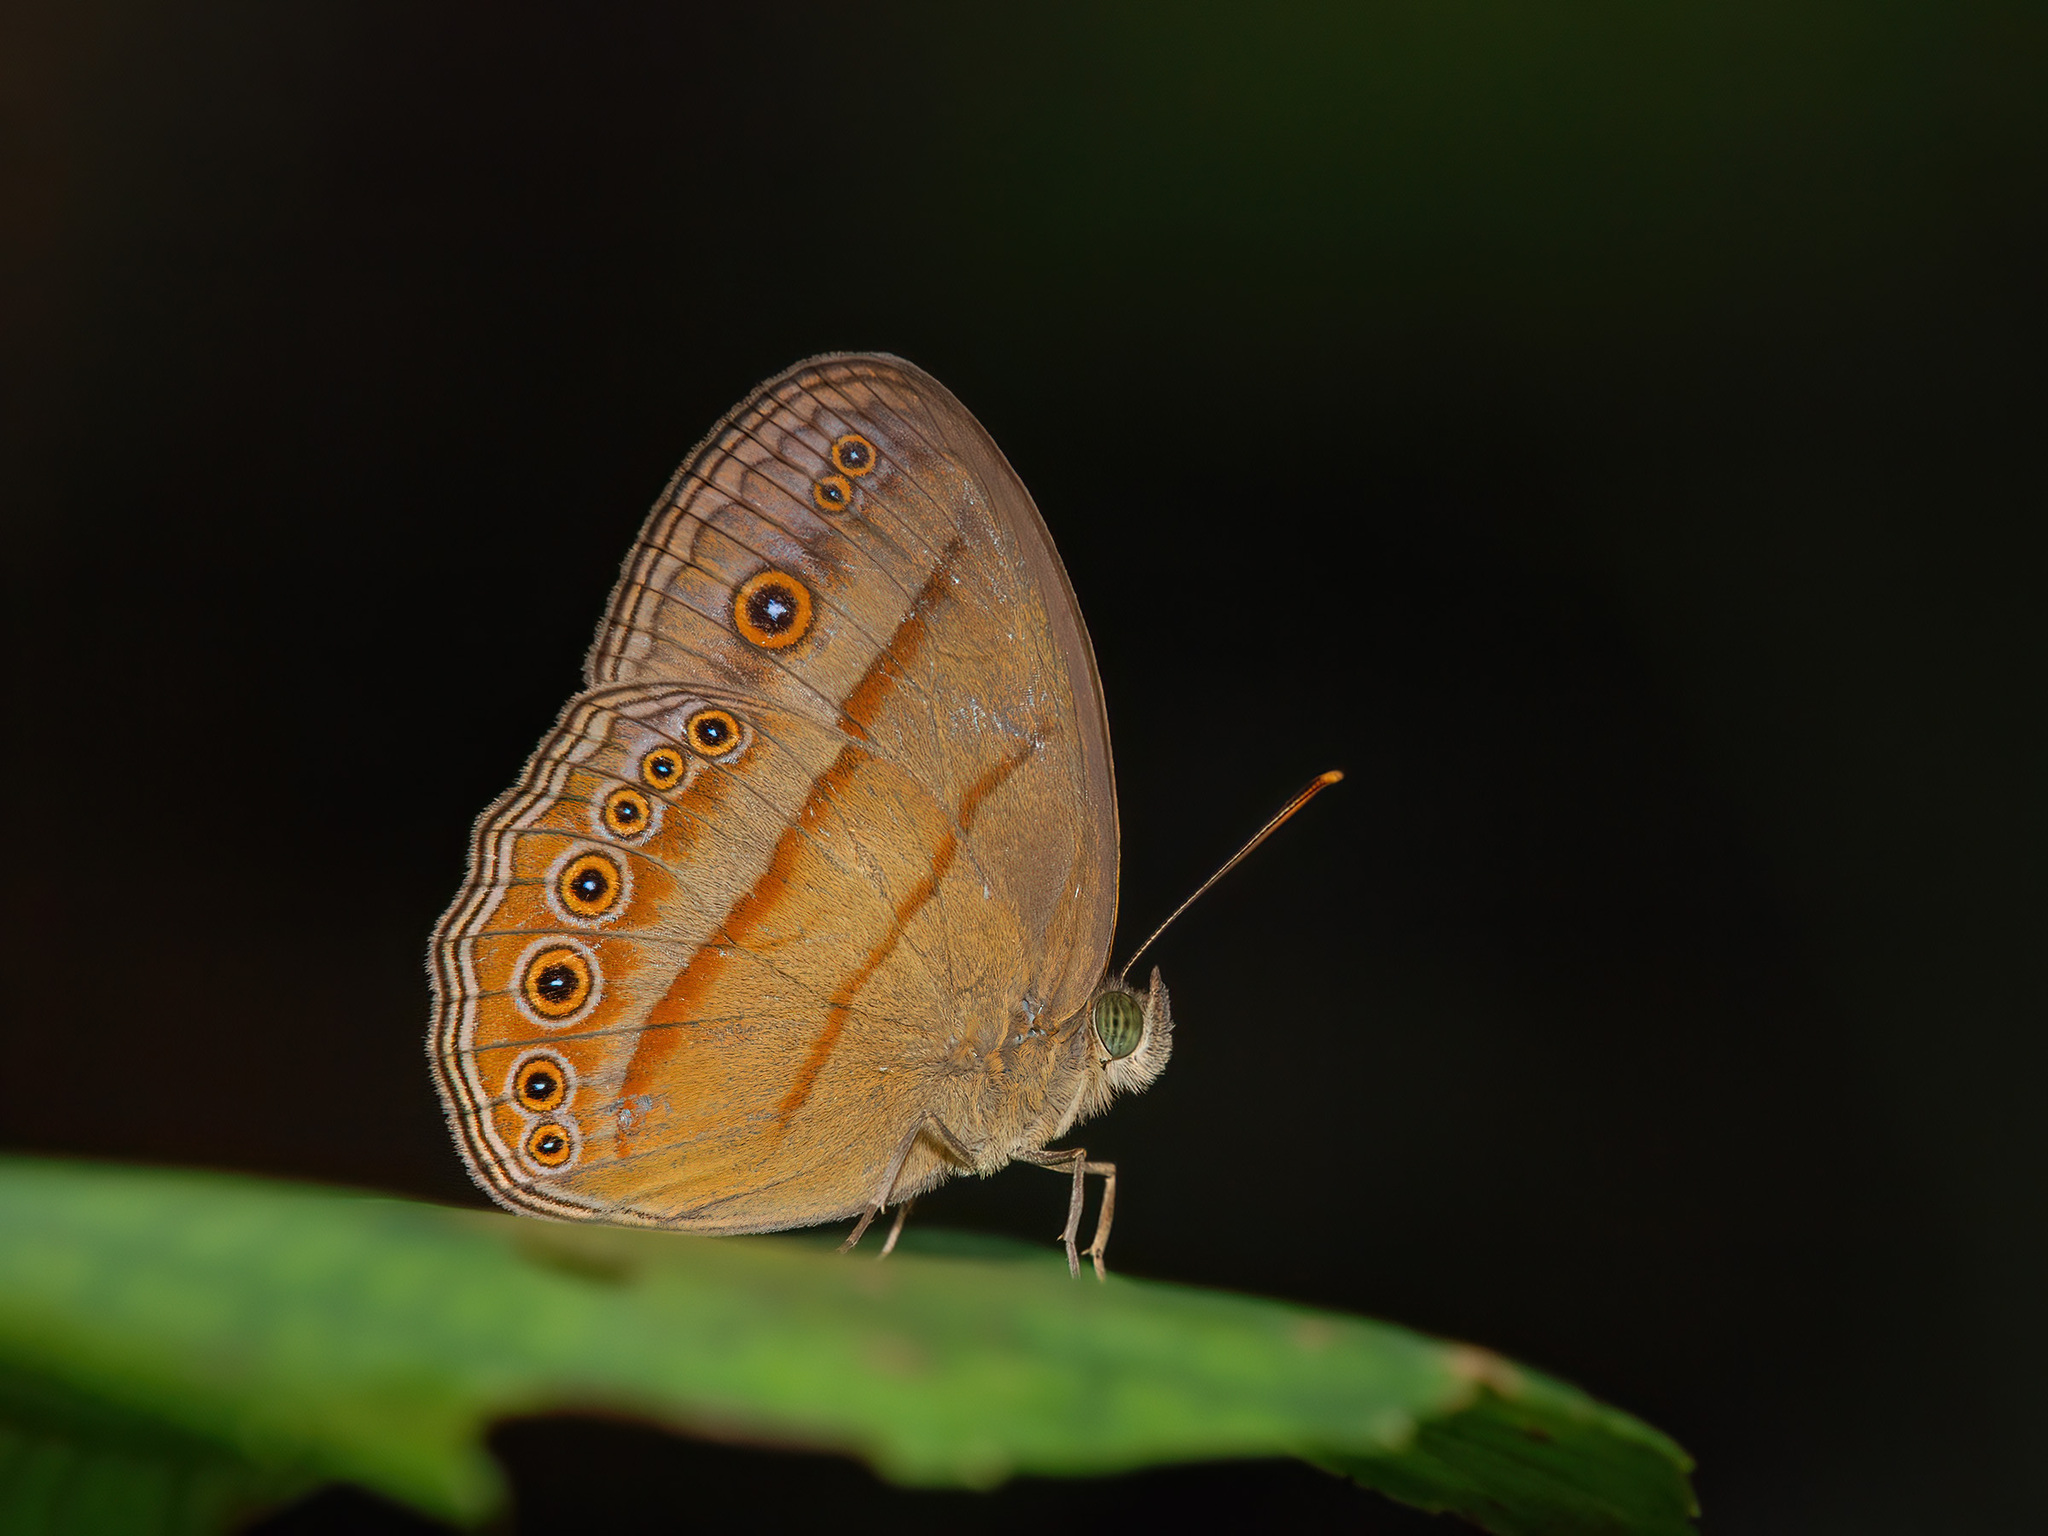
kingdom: Animalia
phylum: Arthropoda
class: Insecta
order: Lepidoptera
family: Nymphalidae
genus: Mycalesis
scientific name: Mycalesis fuscum
